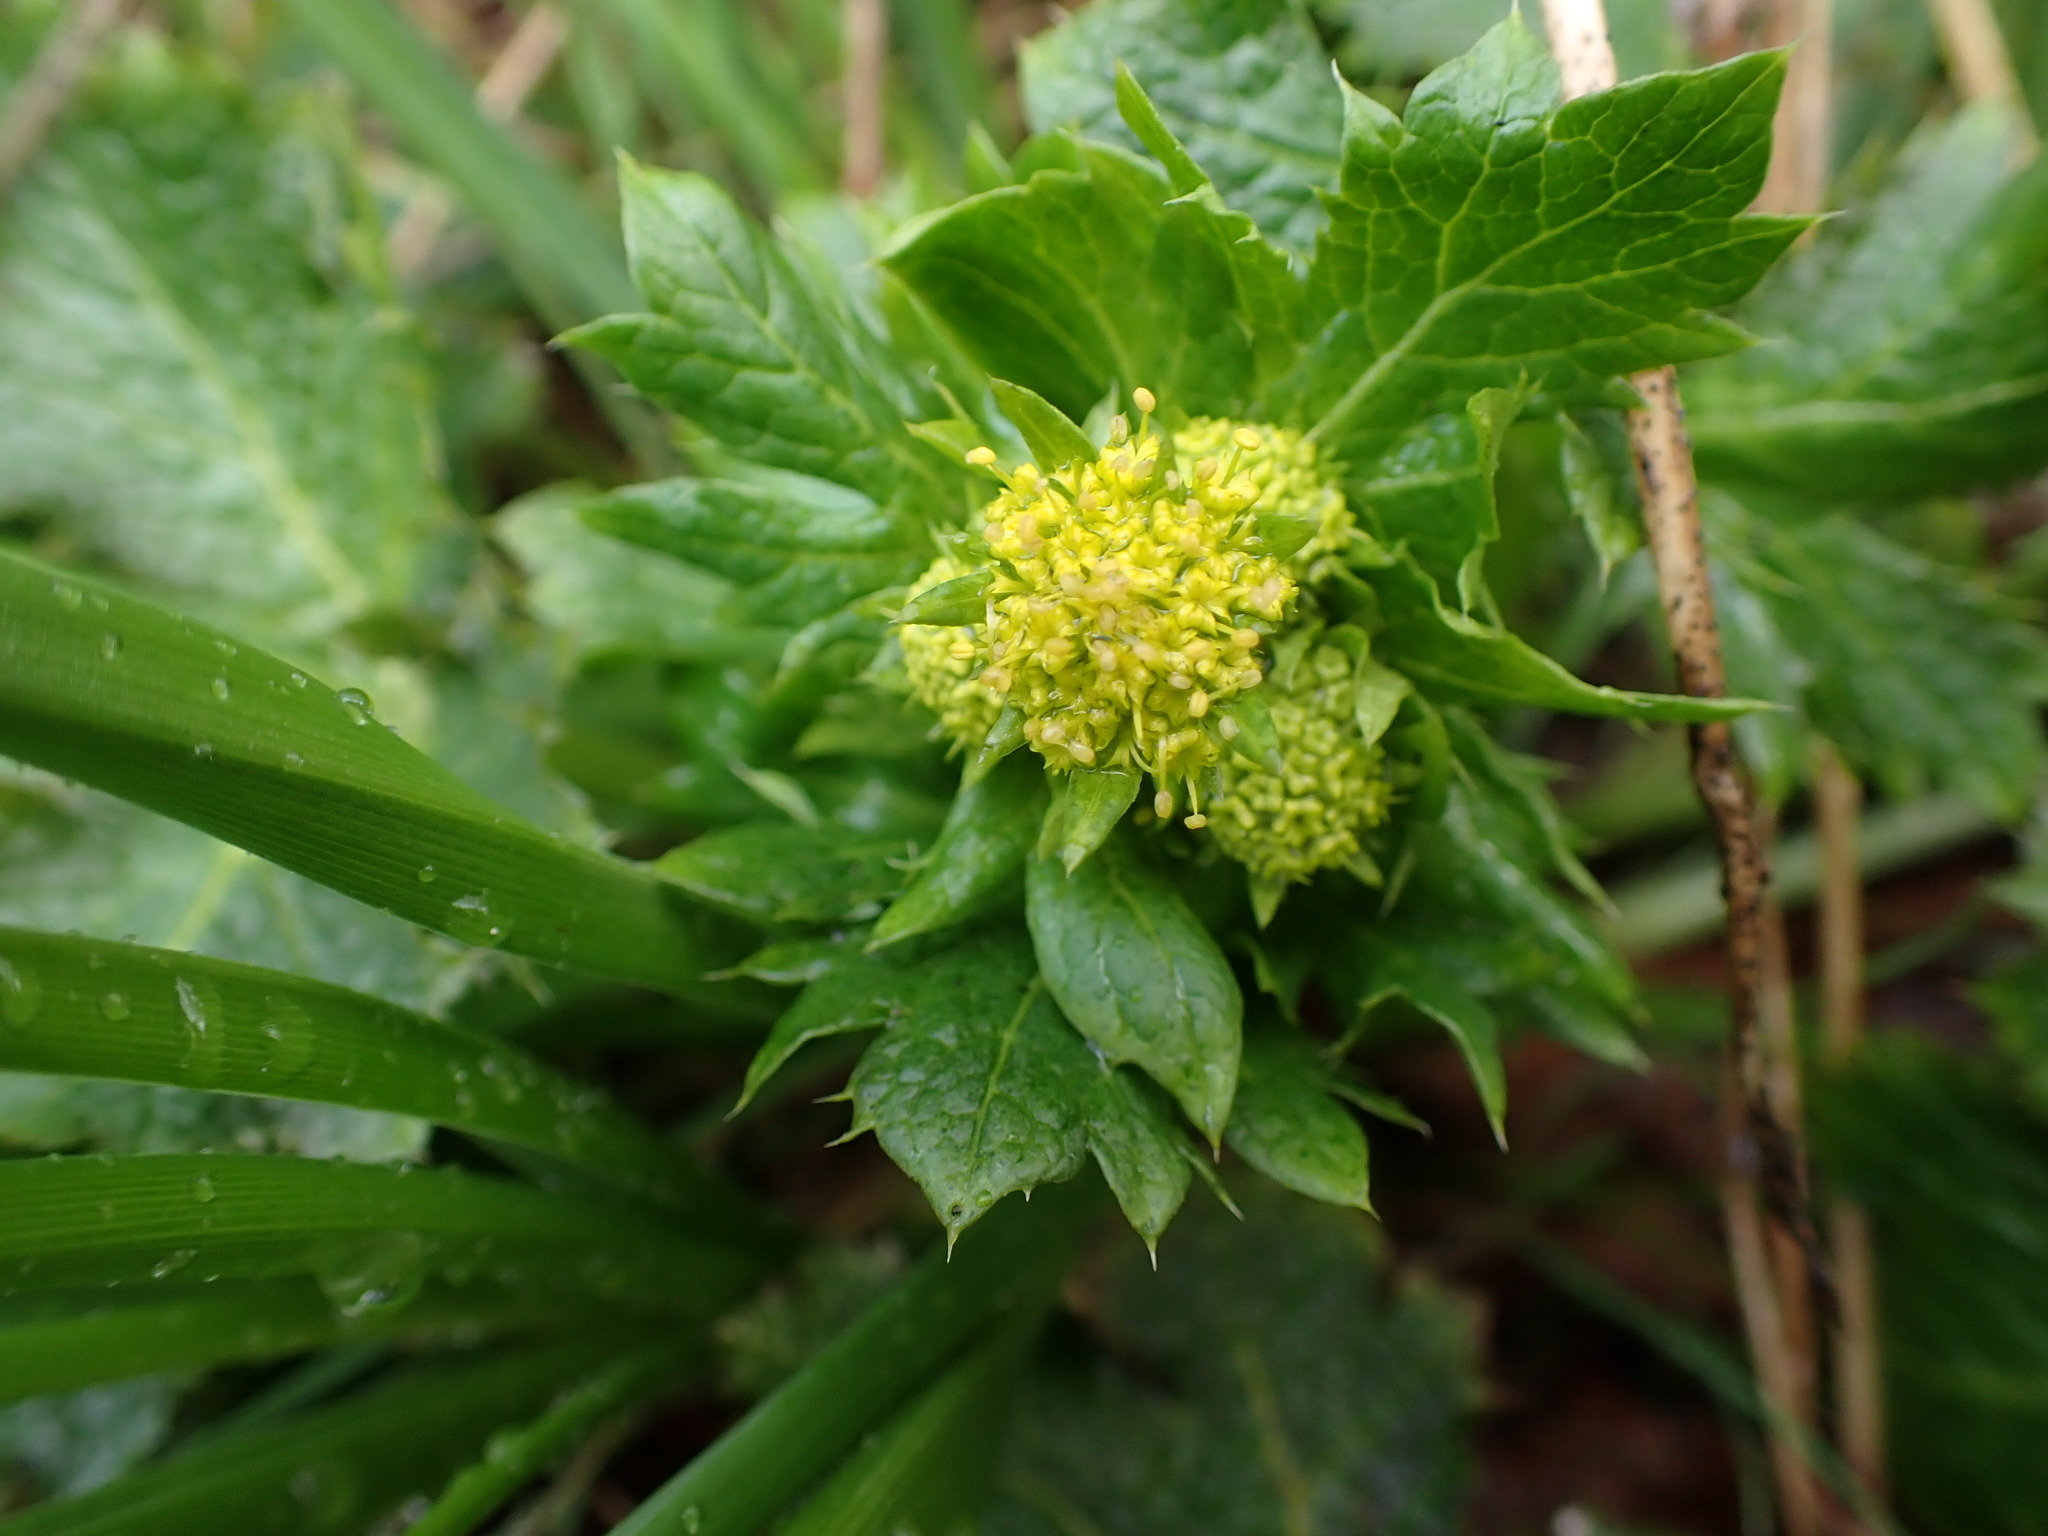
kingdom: Plantae
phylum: Tracheophyta
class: Magnoliopsida
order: Apiales
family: Apiaceae
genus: Sanicula
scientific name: Sanicula crassicaulis
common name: Western snakeroot
